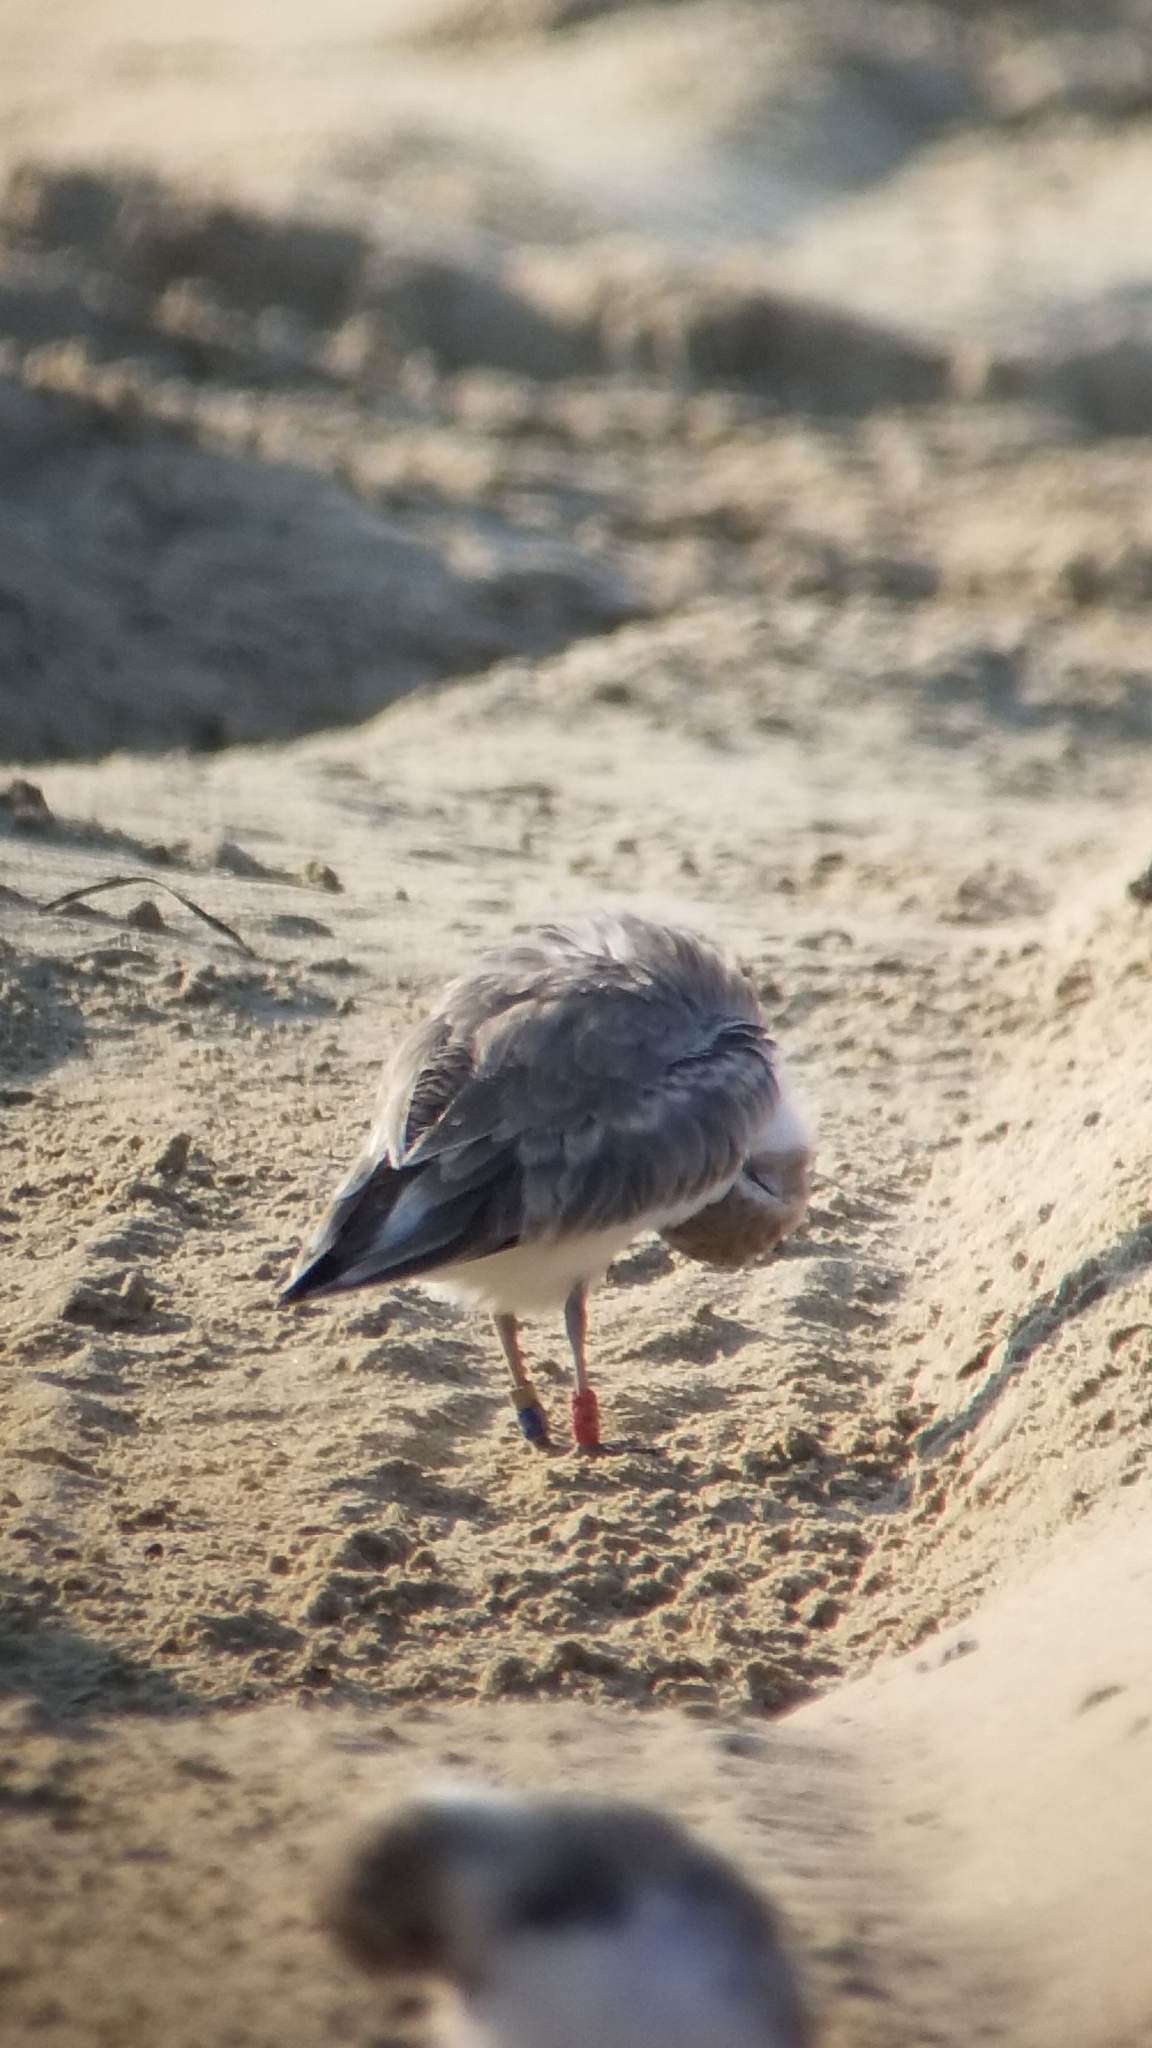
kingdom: Animalia
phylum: Chordata
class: Aves
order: Charadriiformes
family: Charadriidae
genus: Anarhynchus
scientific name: Anarhynchus
